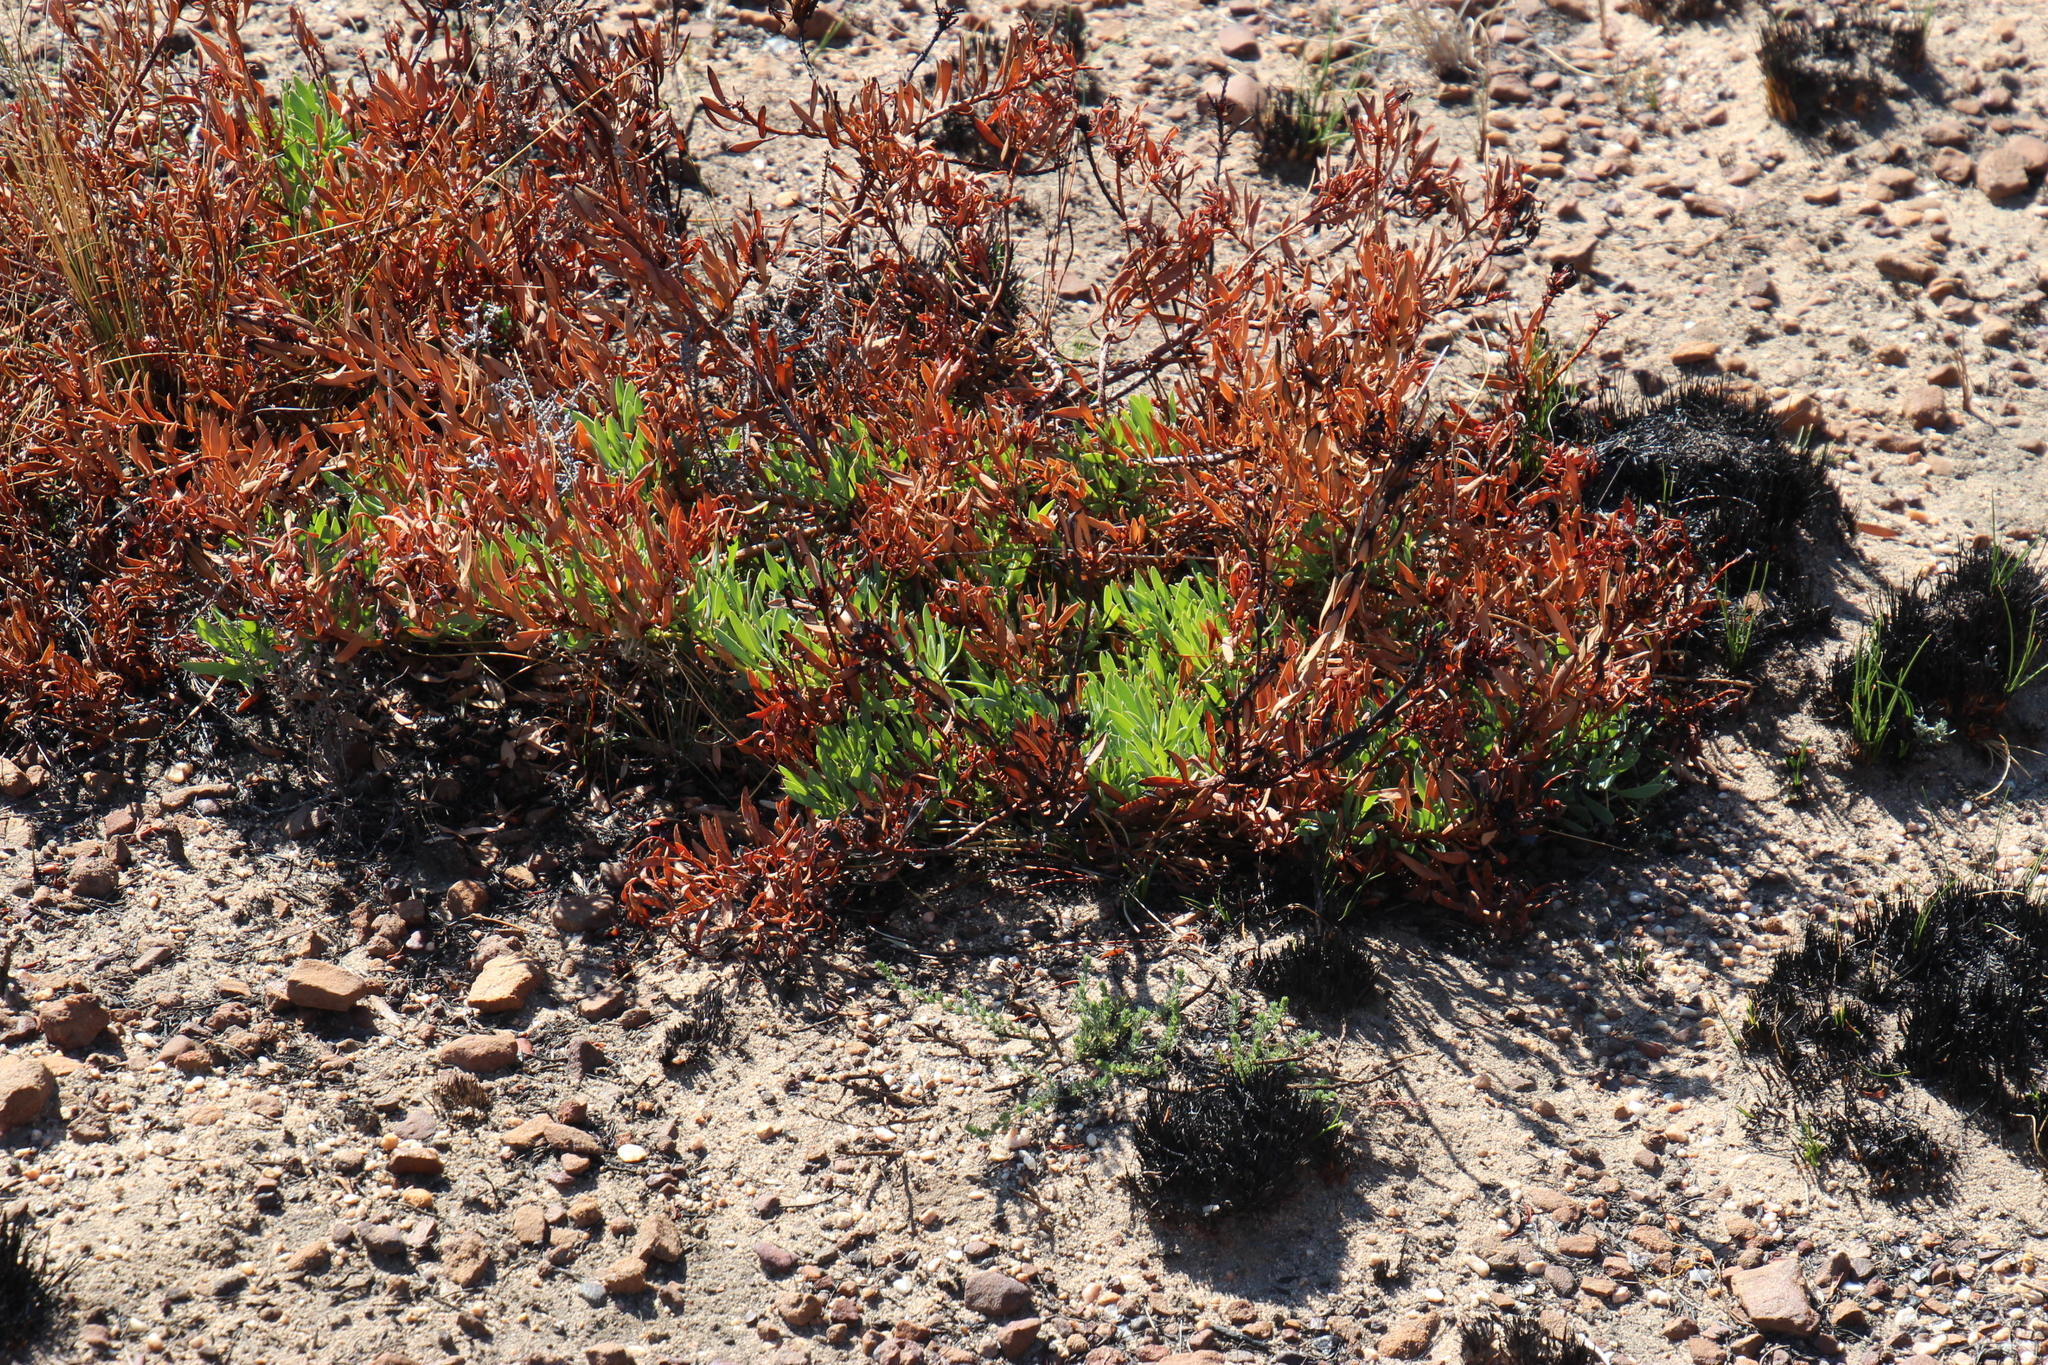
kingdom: Plantae
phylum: Tracheophyta
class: Magnoliopsida
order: Proteales
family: Proteaceae
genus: Leucadendron
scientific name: Leucadendron glaberrimum
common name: Common oily conebush
